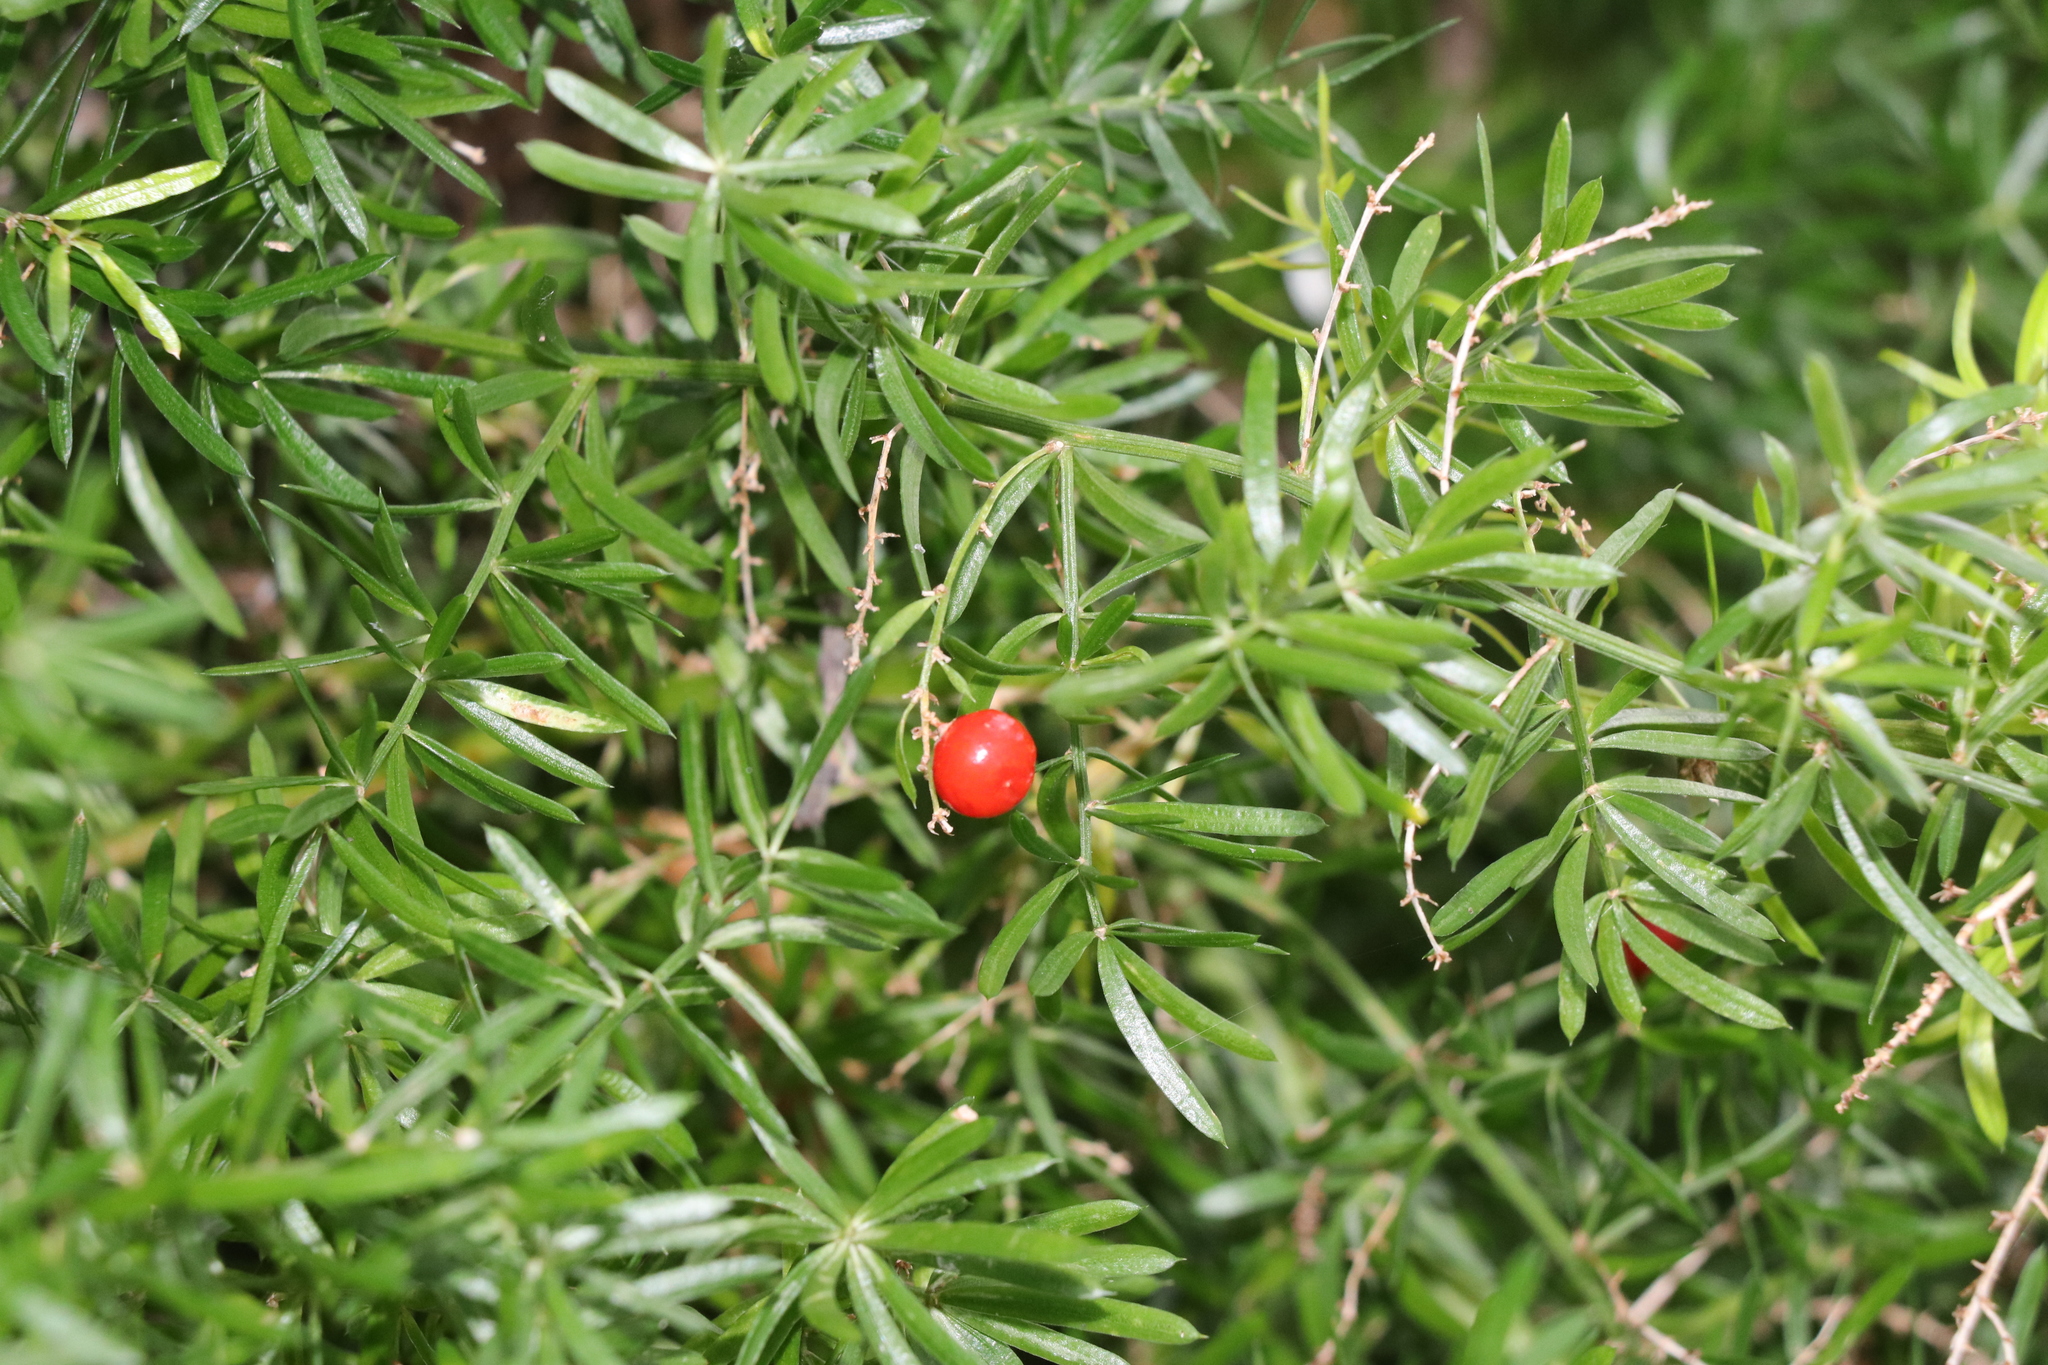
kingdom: Plantae
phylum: Tracheophyta
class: Liliopsida
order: Asparagales
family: Asparagaceae
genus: Asparagus
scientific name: Asparagus aethiopicus
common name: Sprenger's asparagus fern
